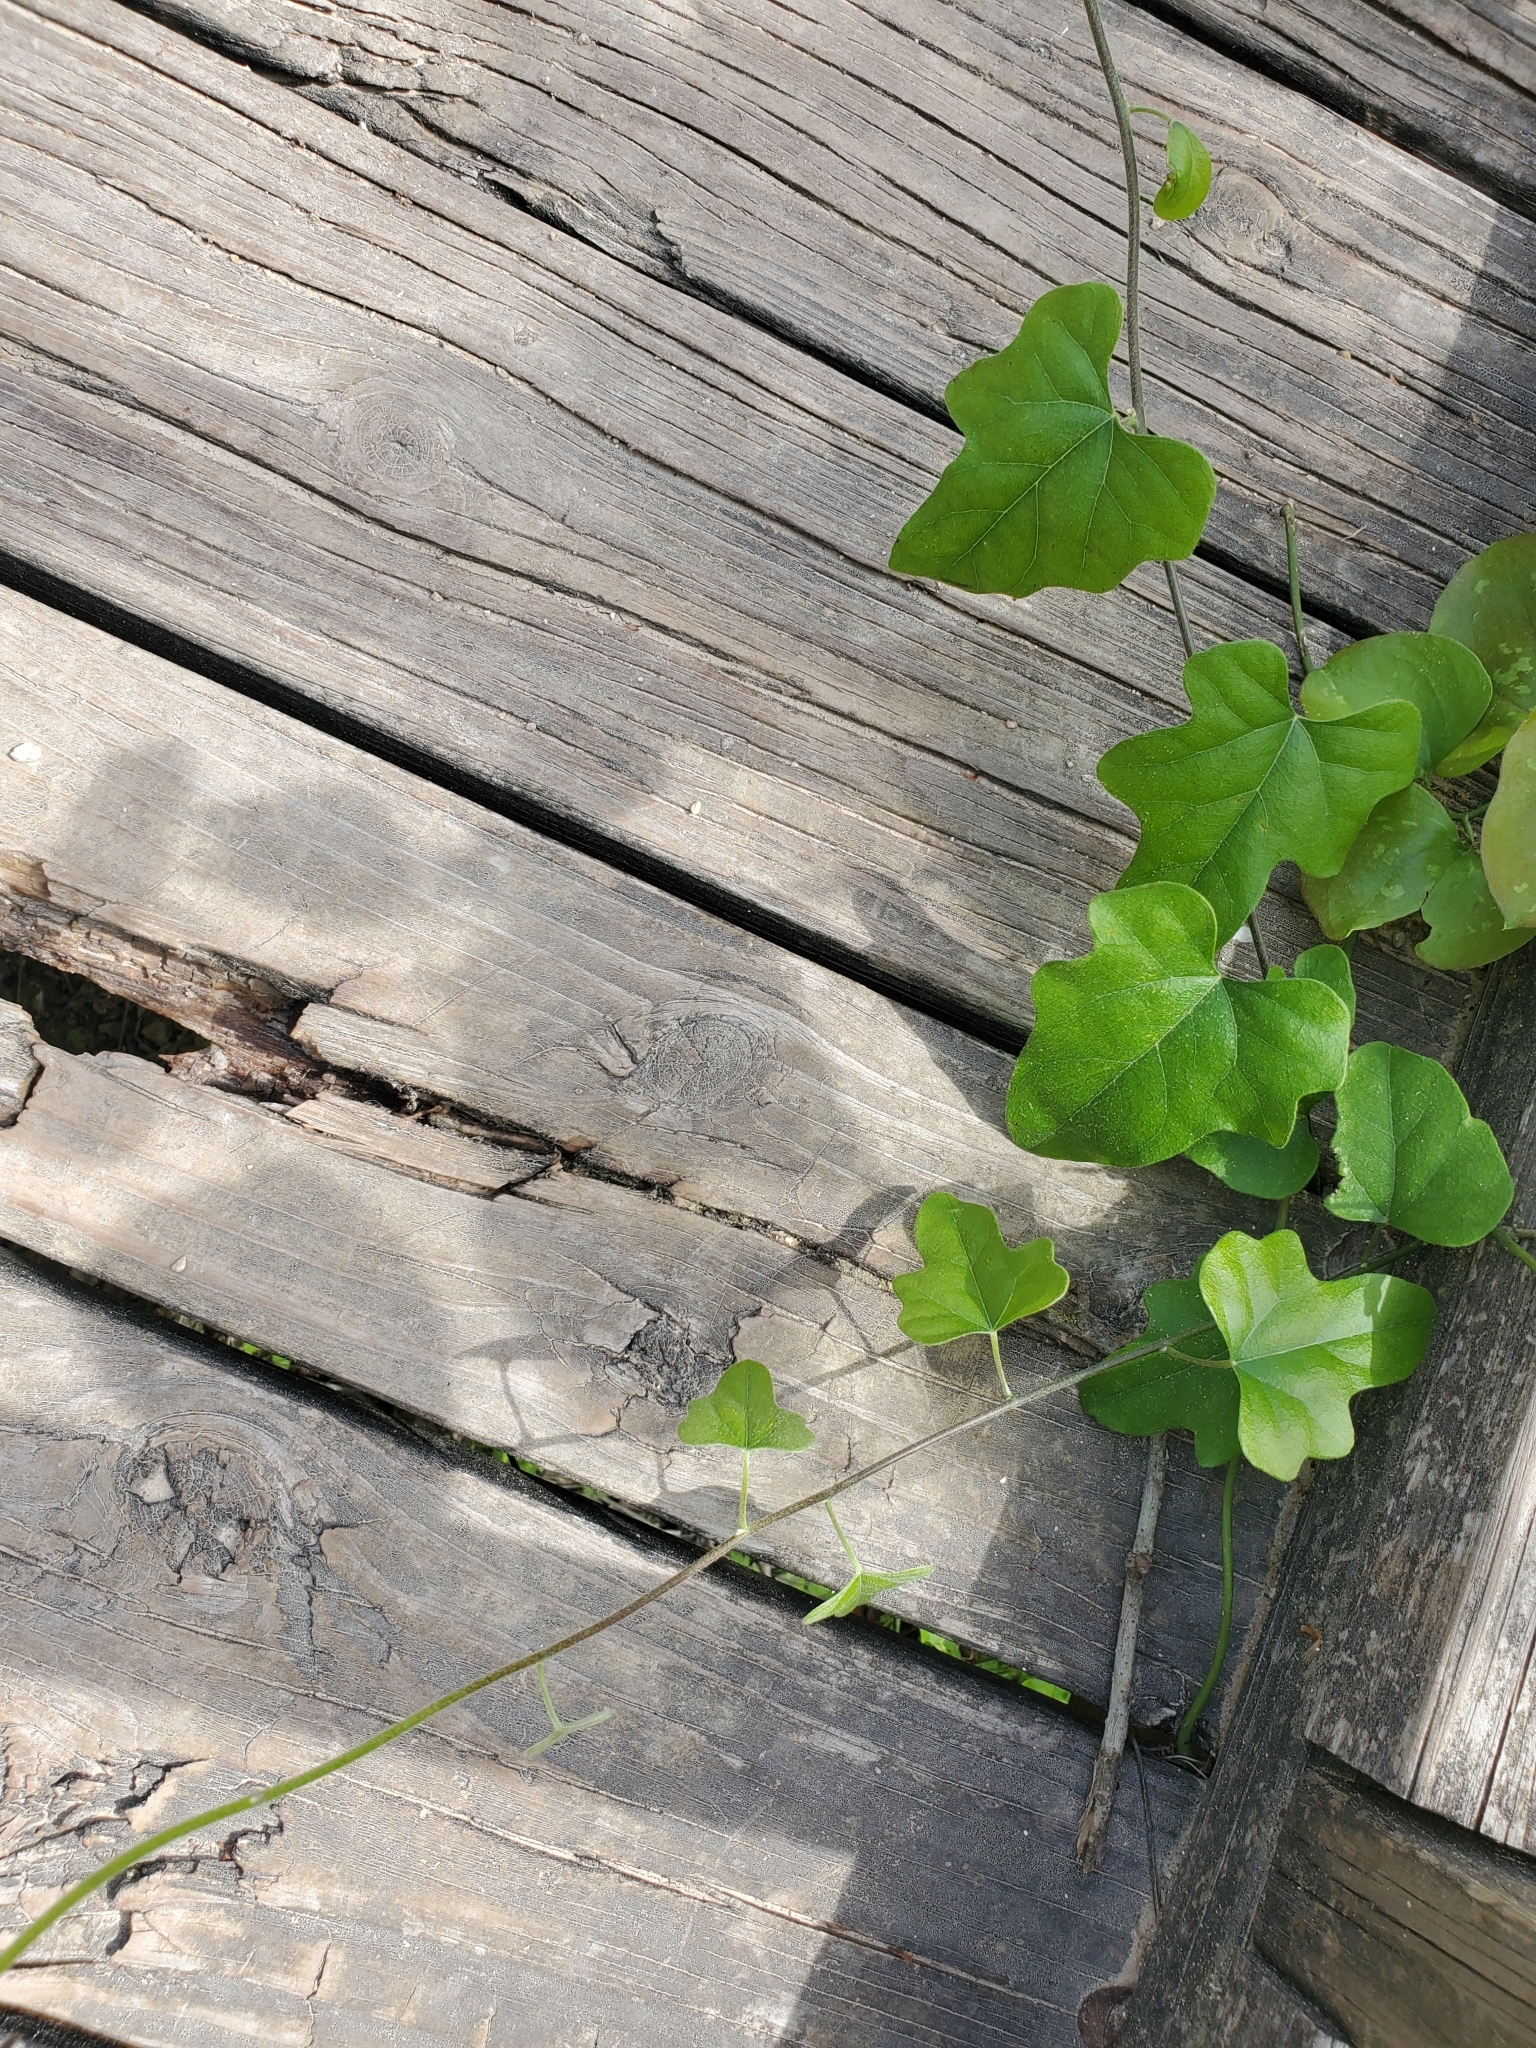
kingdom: Plantae
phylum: Tracheophyta
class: Magnoliopsida
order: Ranunculales
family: Menispermaceae
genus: Cocculus
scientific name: Cocculus carolinus
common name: Carolina moonseed
